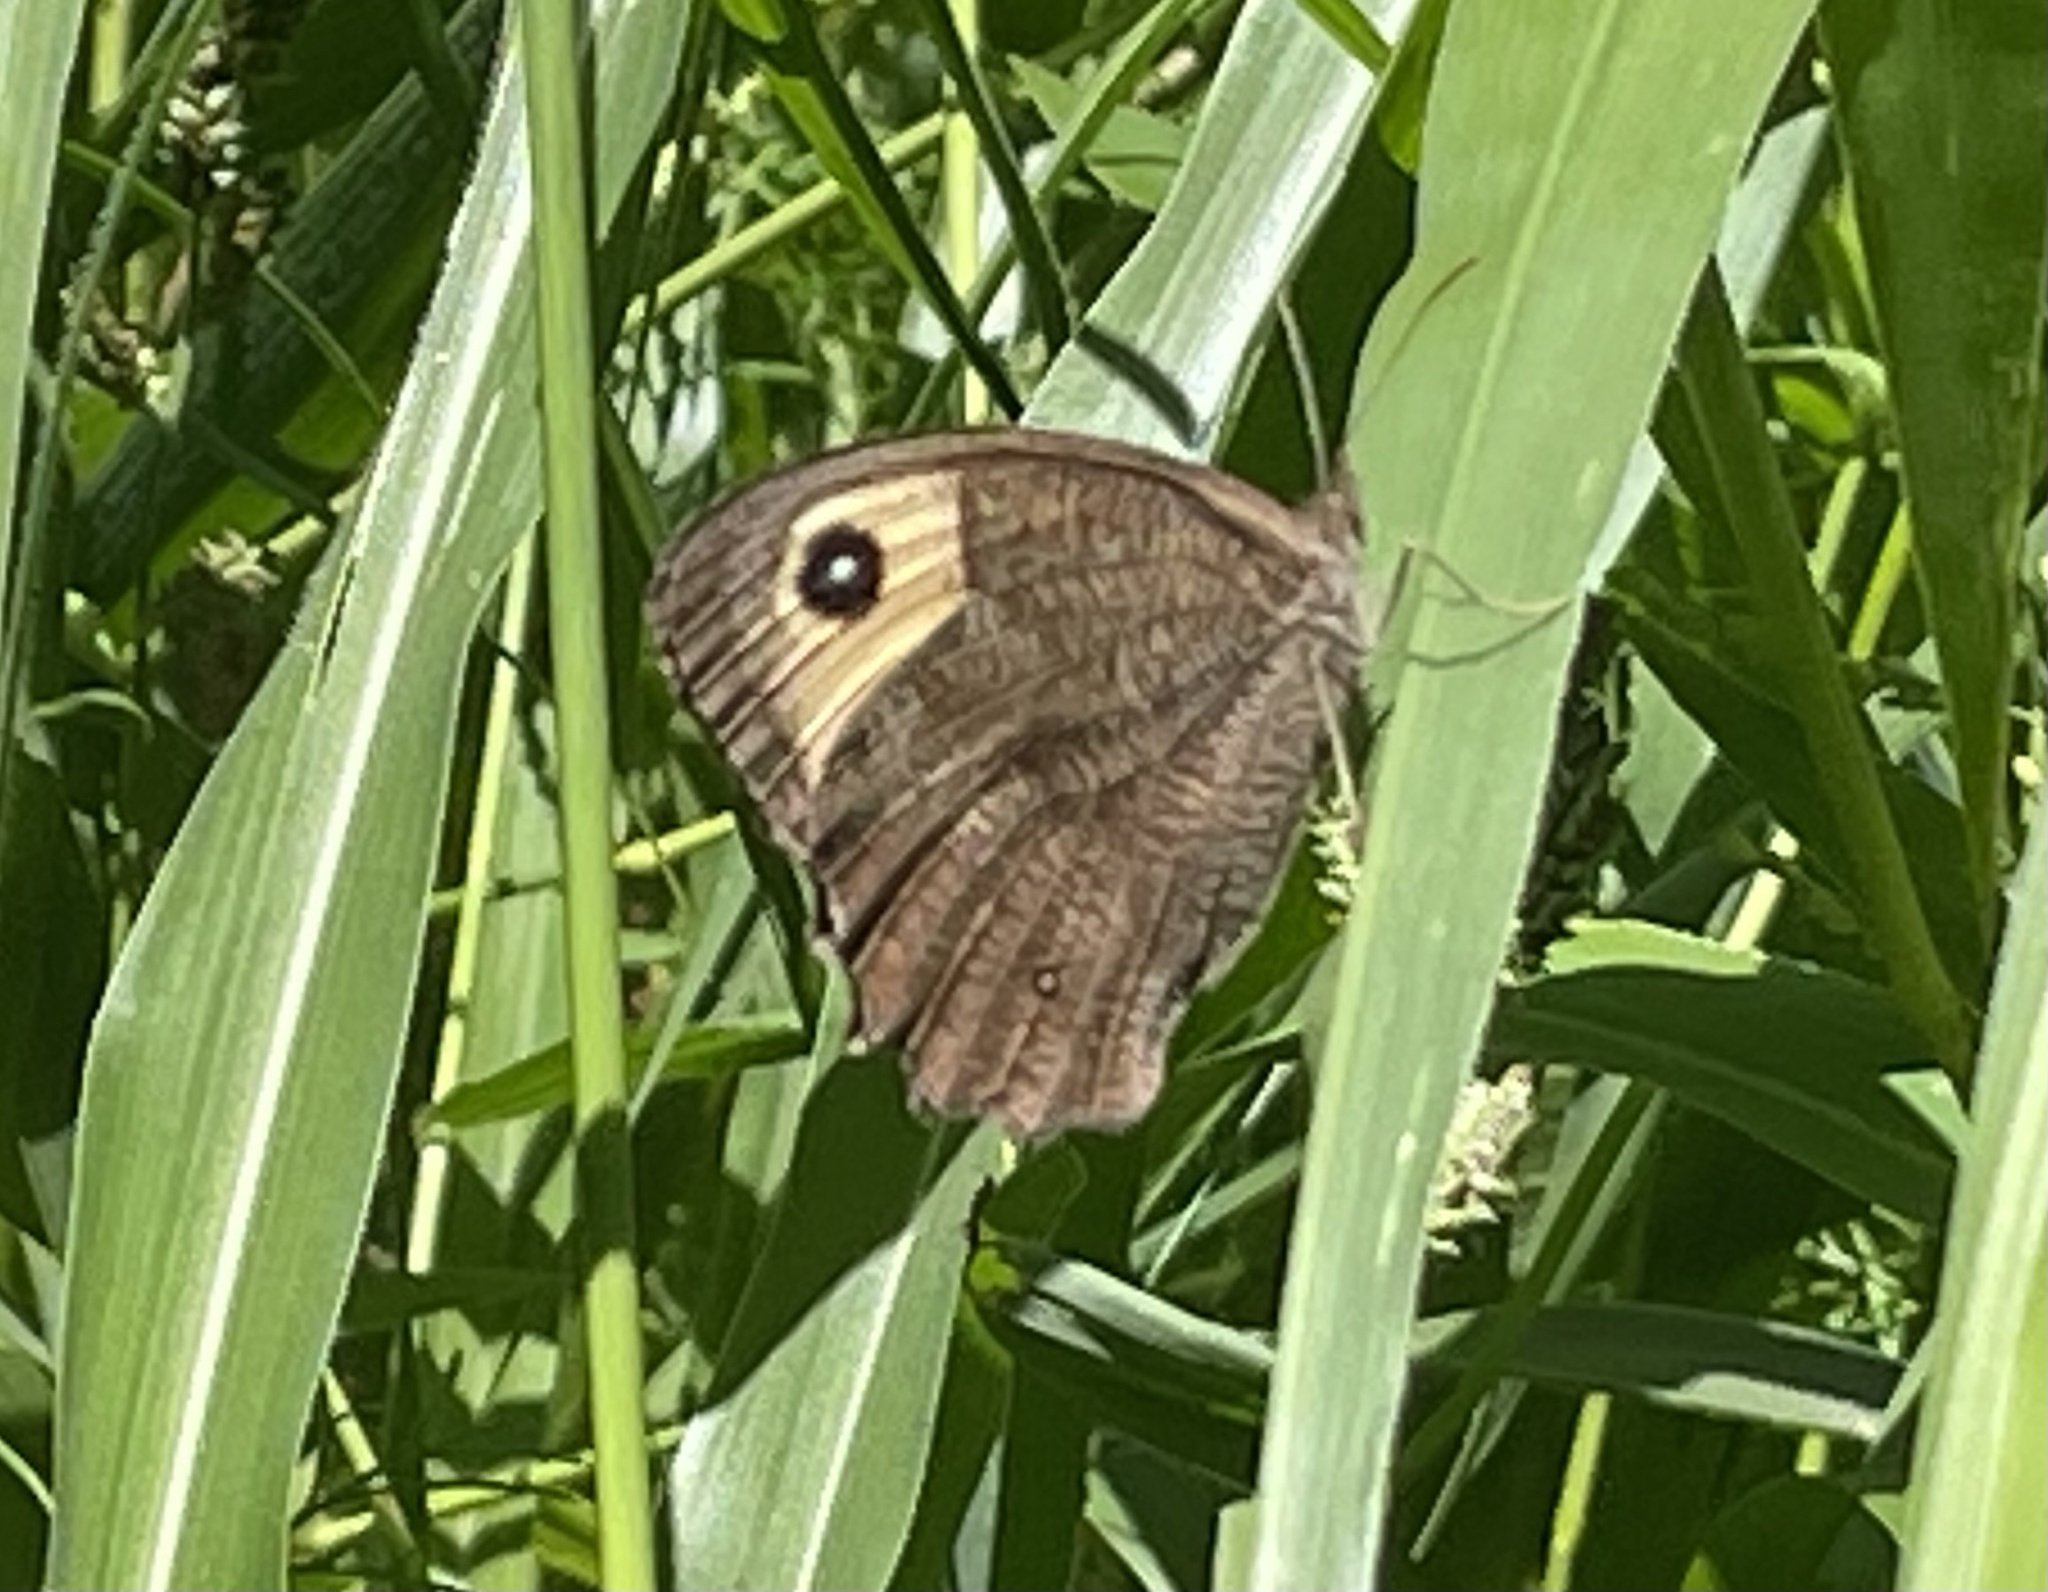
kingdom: Animalia
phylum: Arthropoda
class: Insecta
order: Lepidoptera
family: Nymphalidae
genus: Cercyonis
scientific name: Cercyonis pegala
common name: Common wood-nymph
